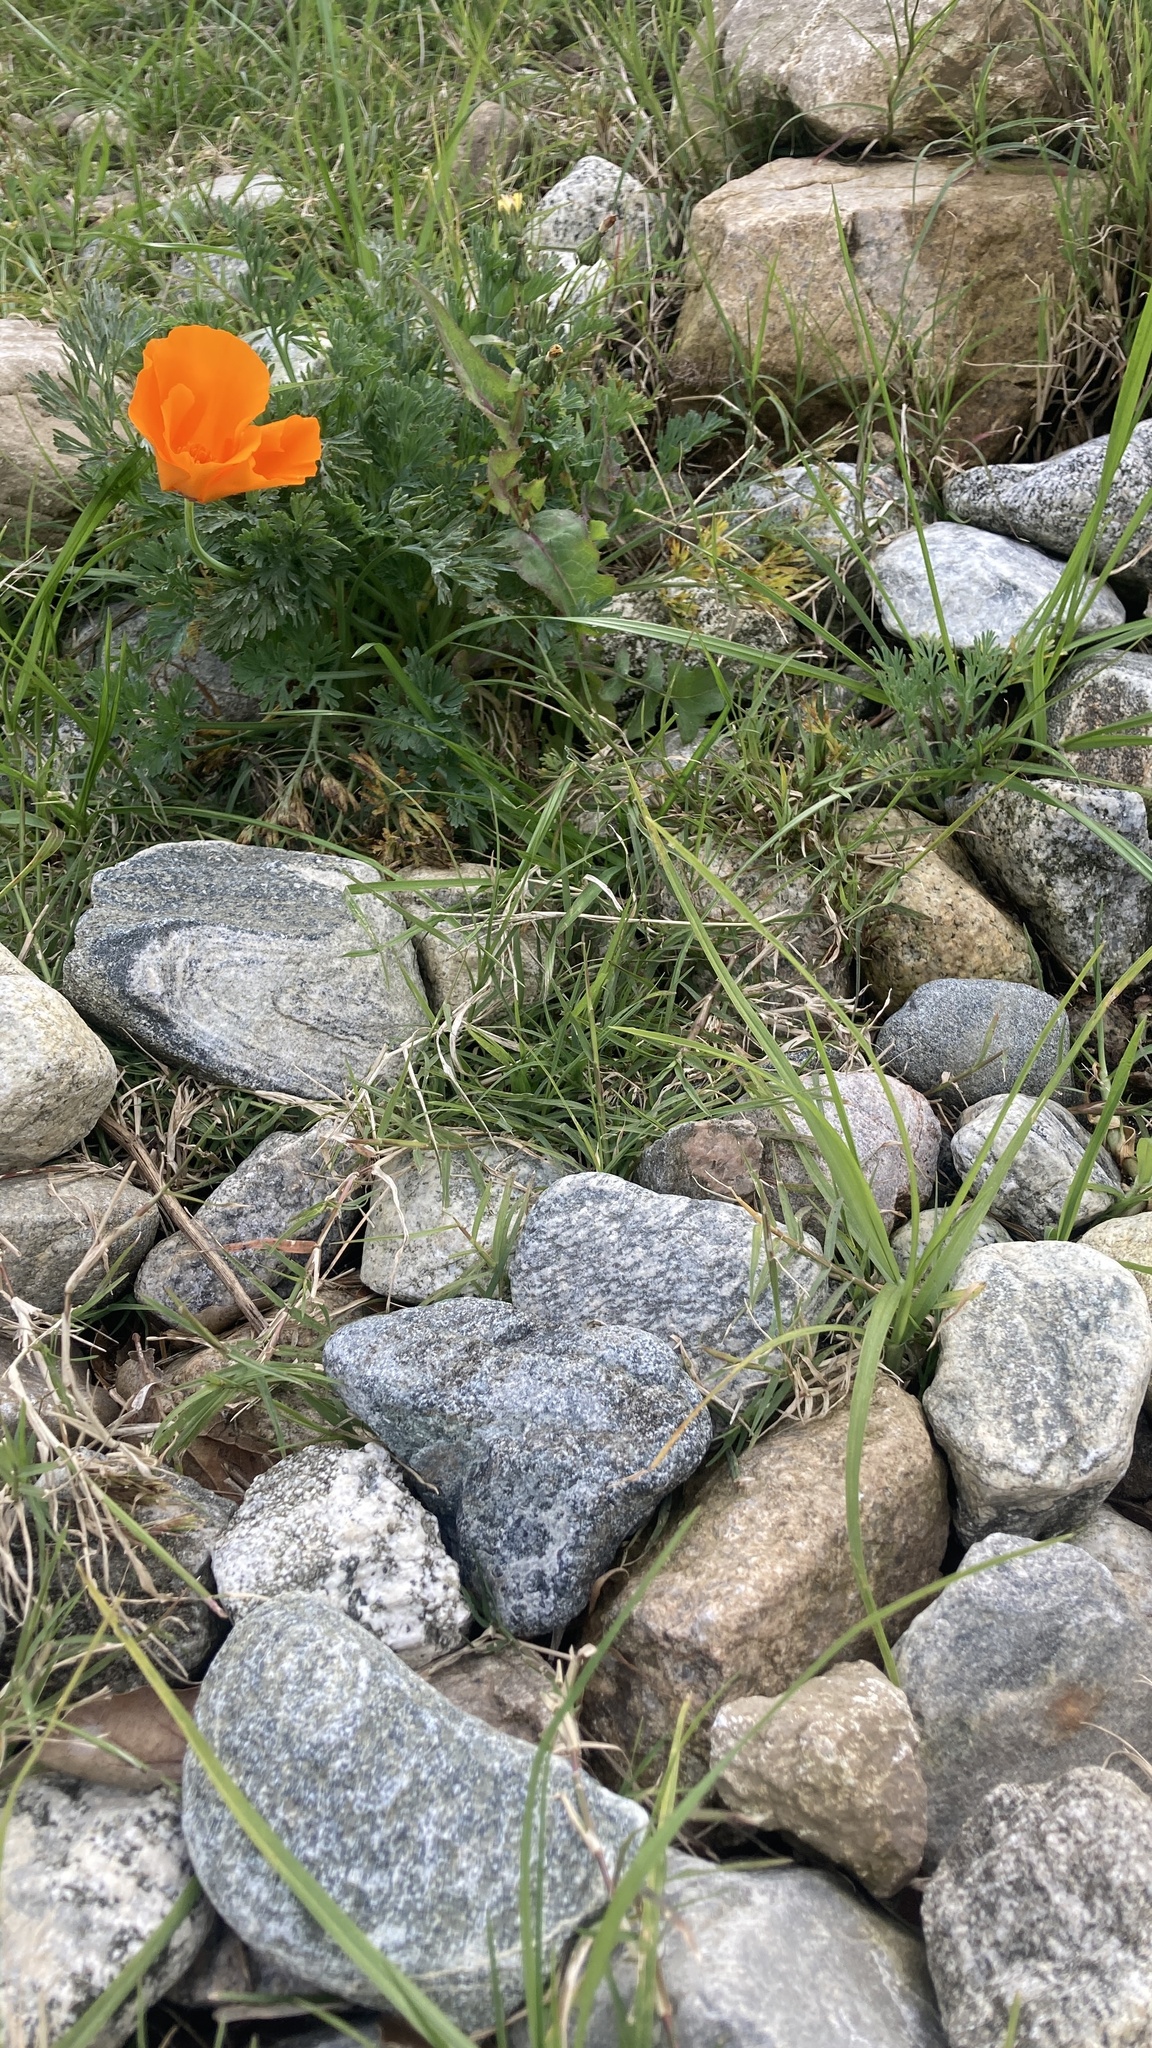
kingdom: Plantae
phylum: Tracheophyta
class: Magnoliopsida
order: Ranunculales
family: Papaveraceae
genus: Eschscholzia
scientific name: Eschscholzia californica
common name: California poppy
